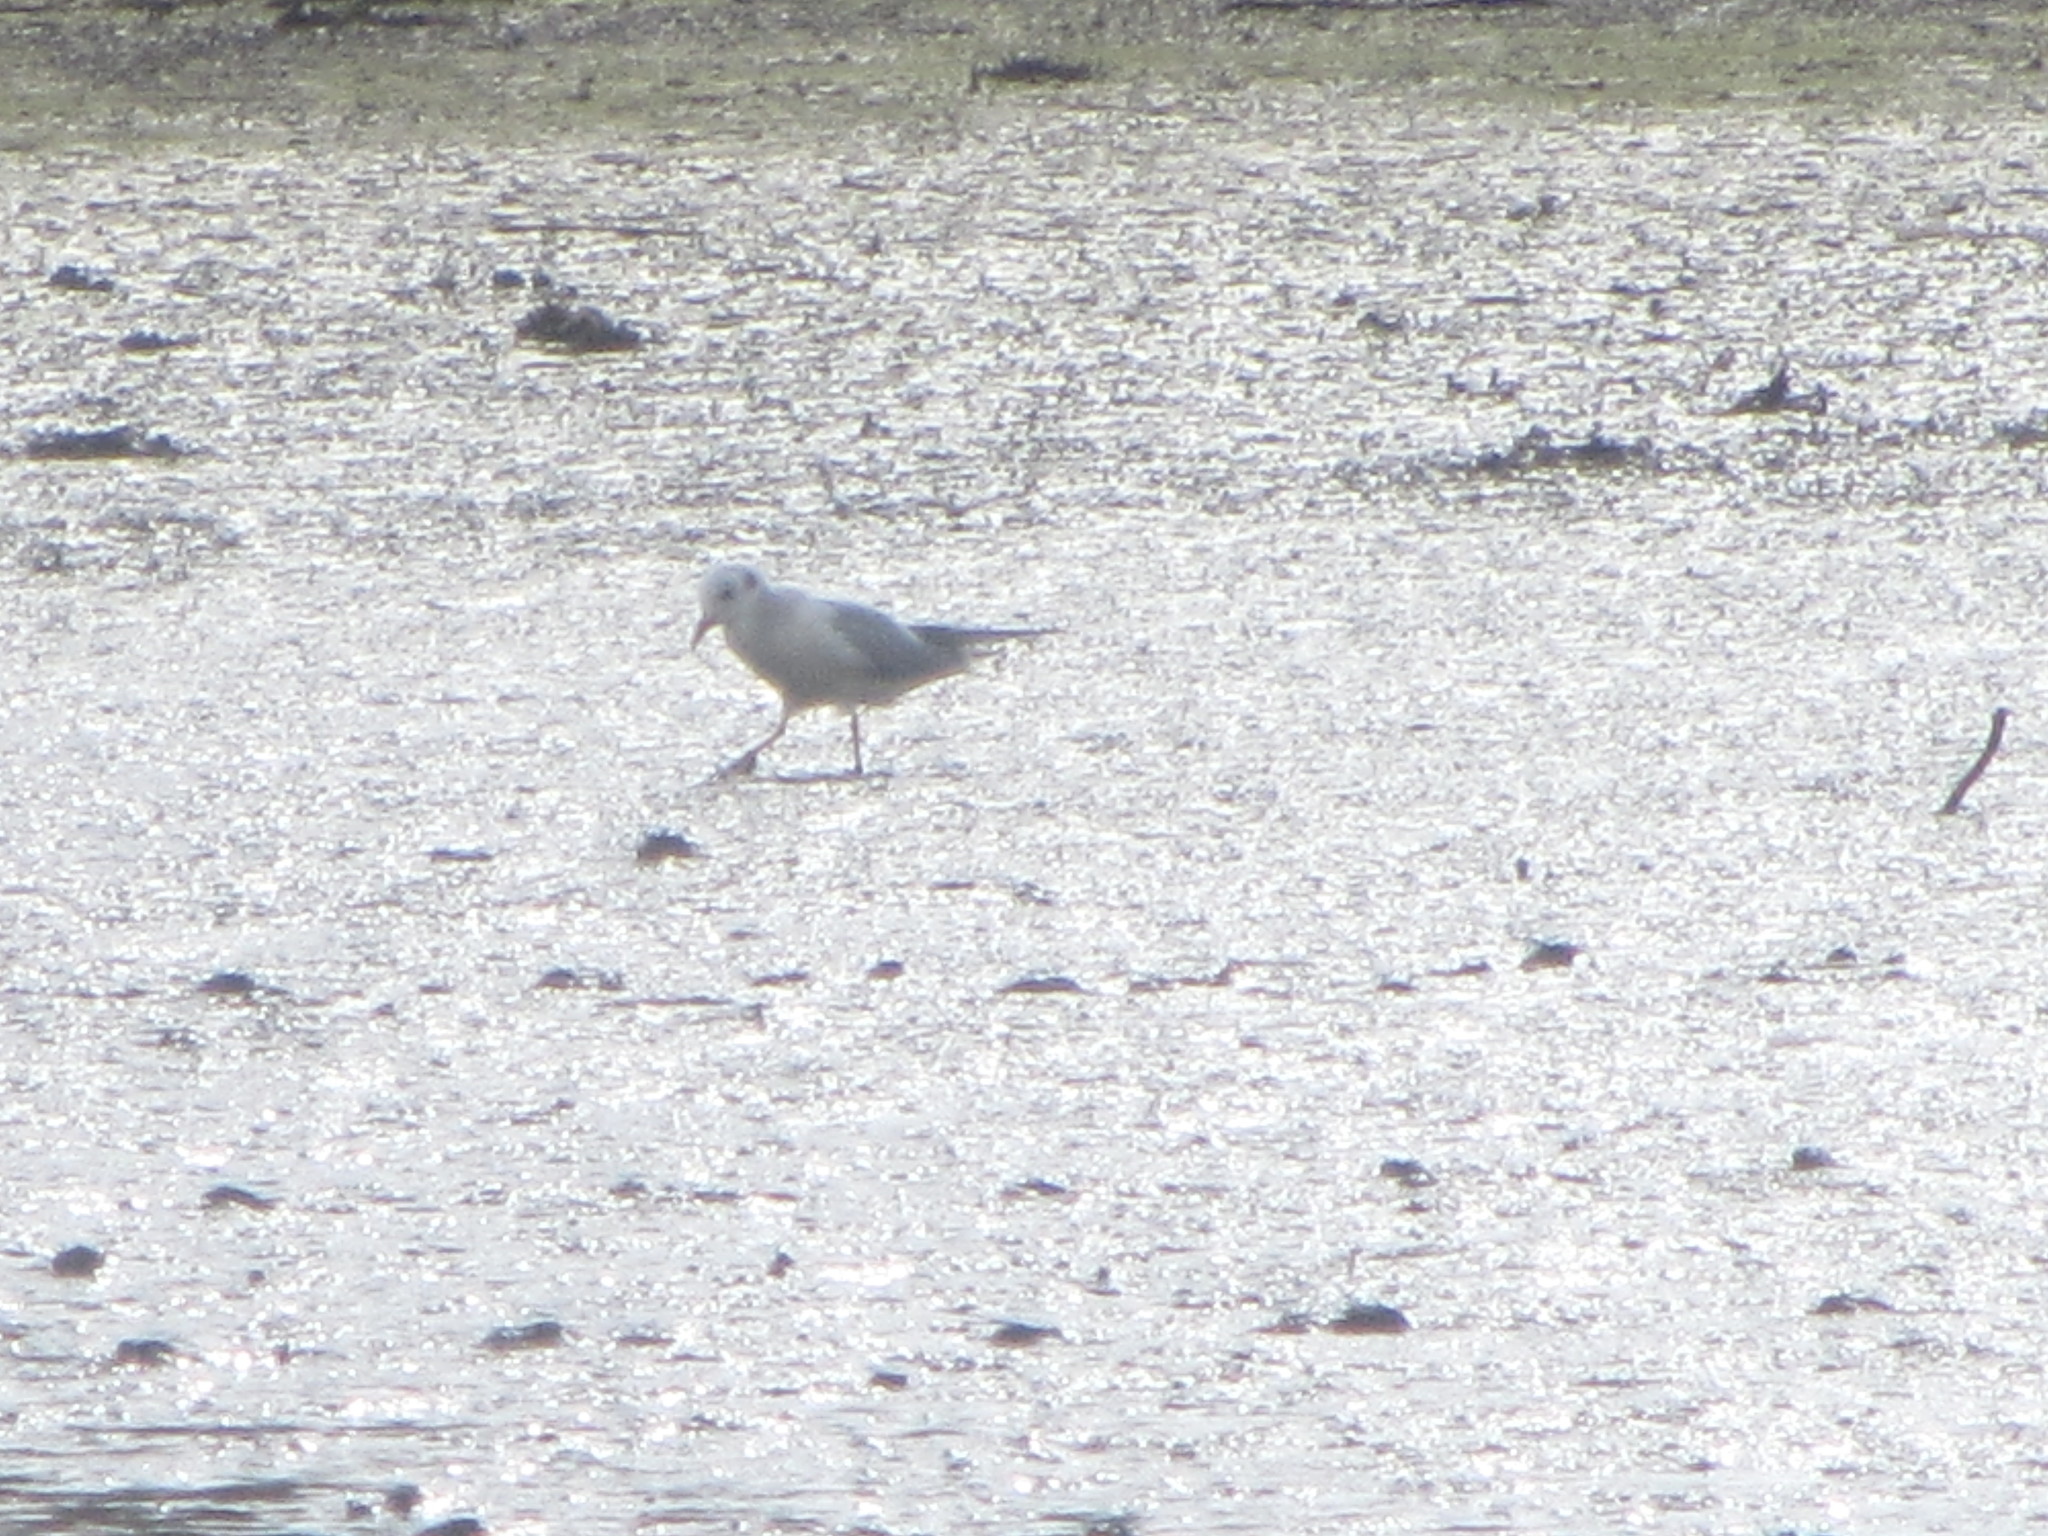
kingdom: Animalia
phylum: Chordata
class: Aves
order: Charadriiformes
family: Laridae
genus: Chroicocephalus
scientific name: Chroicocephalus philadelphia
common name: Bonaparte's gull
